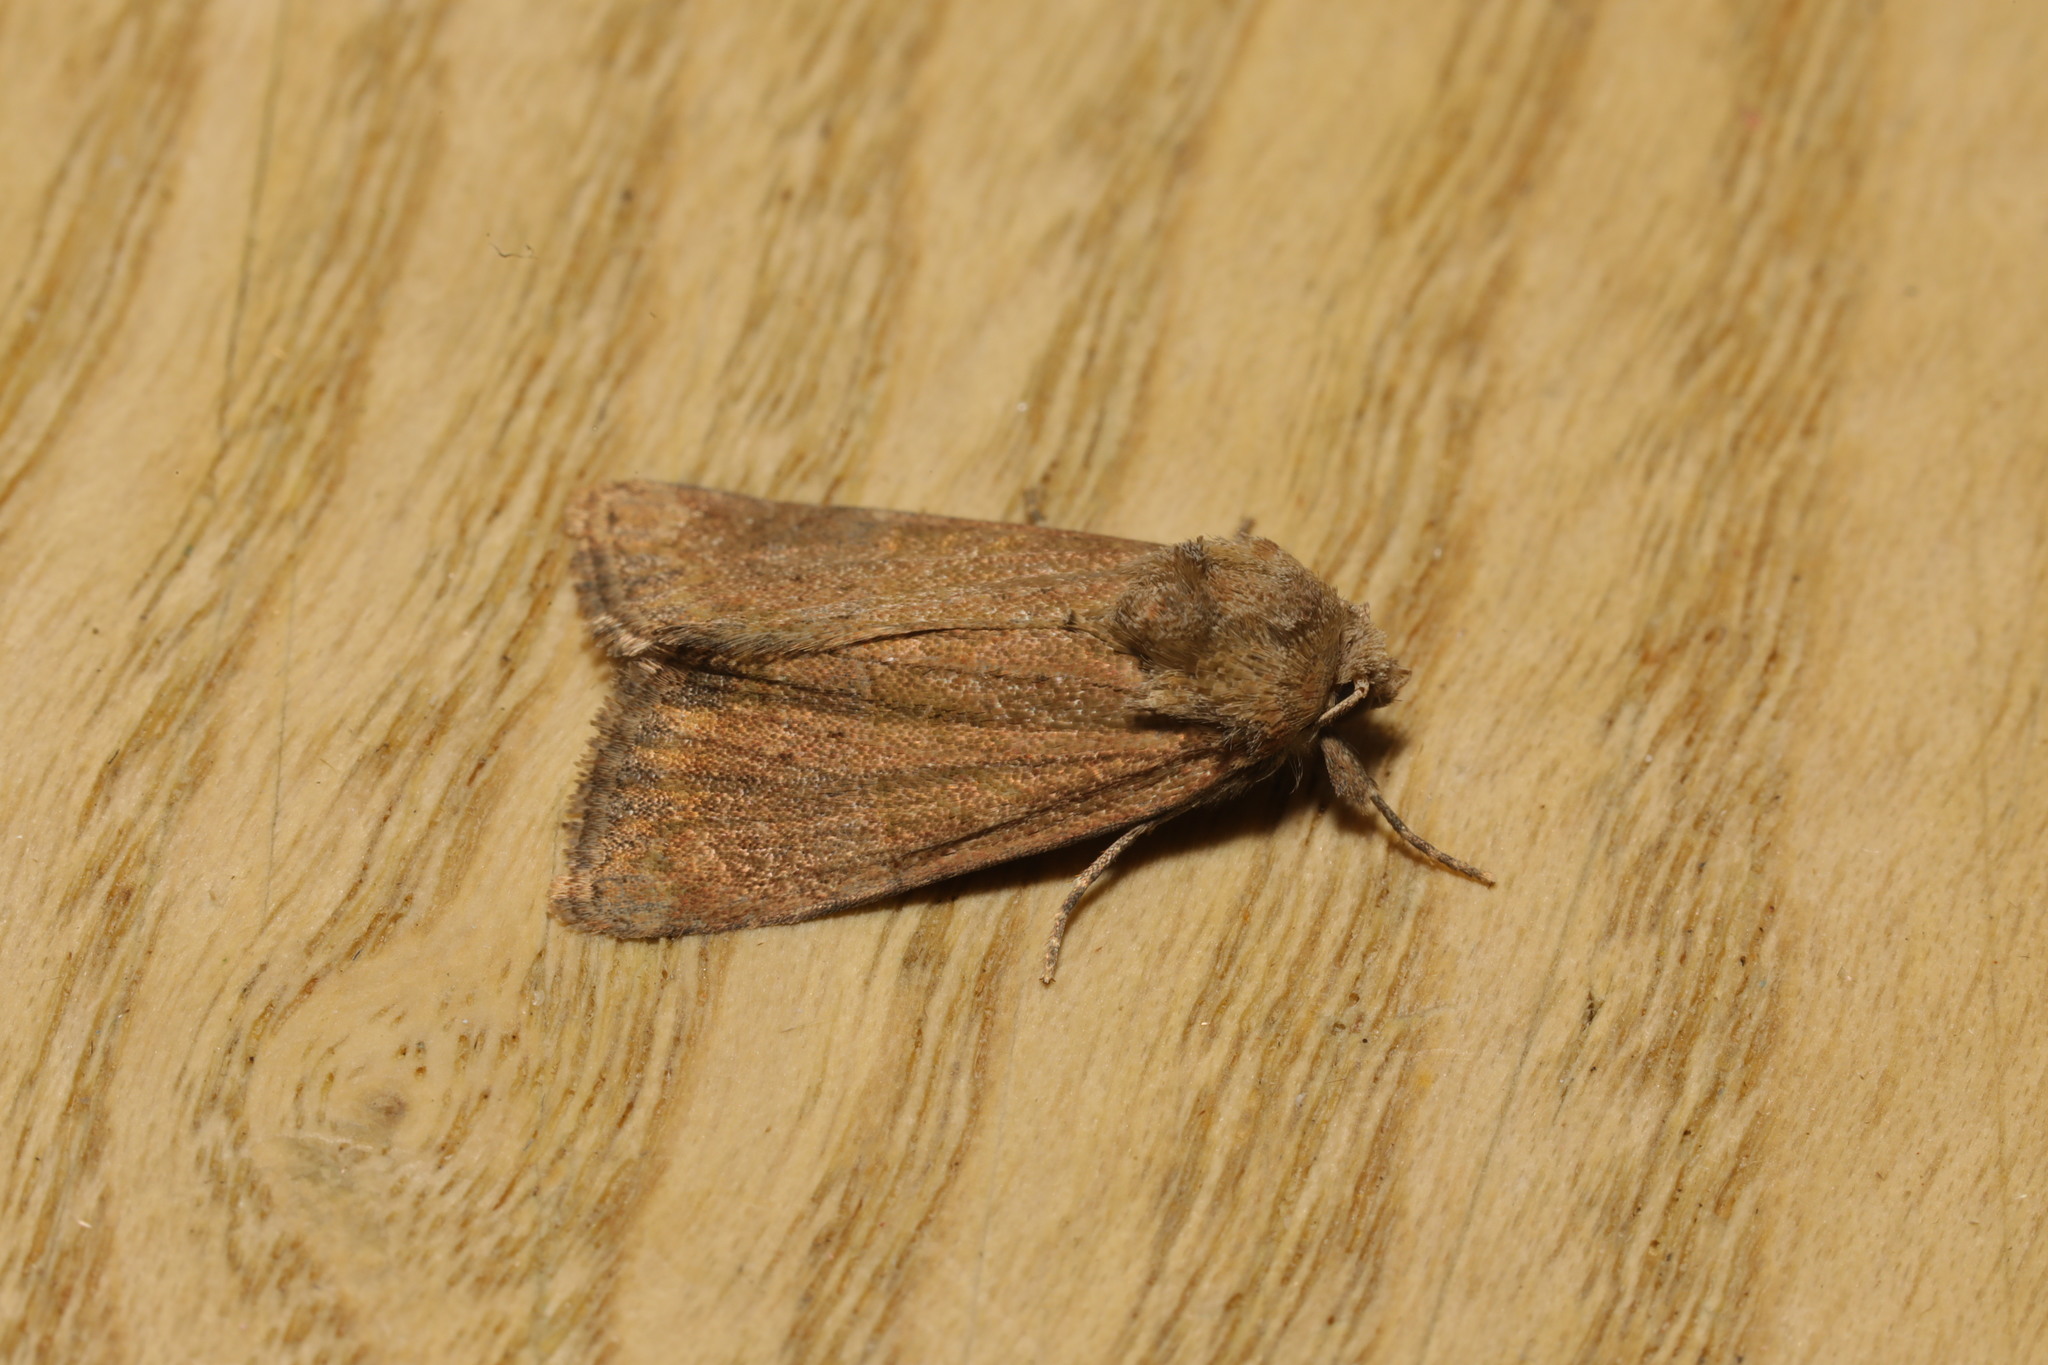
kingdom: Animalia
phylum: Arthropoda
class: Insecta
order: Lepidoptera
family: Noctuidae
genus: Mesoligia
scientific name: Mesoligia furuncula
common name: Cloaked minor
